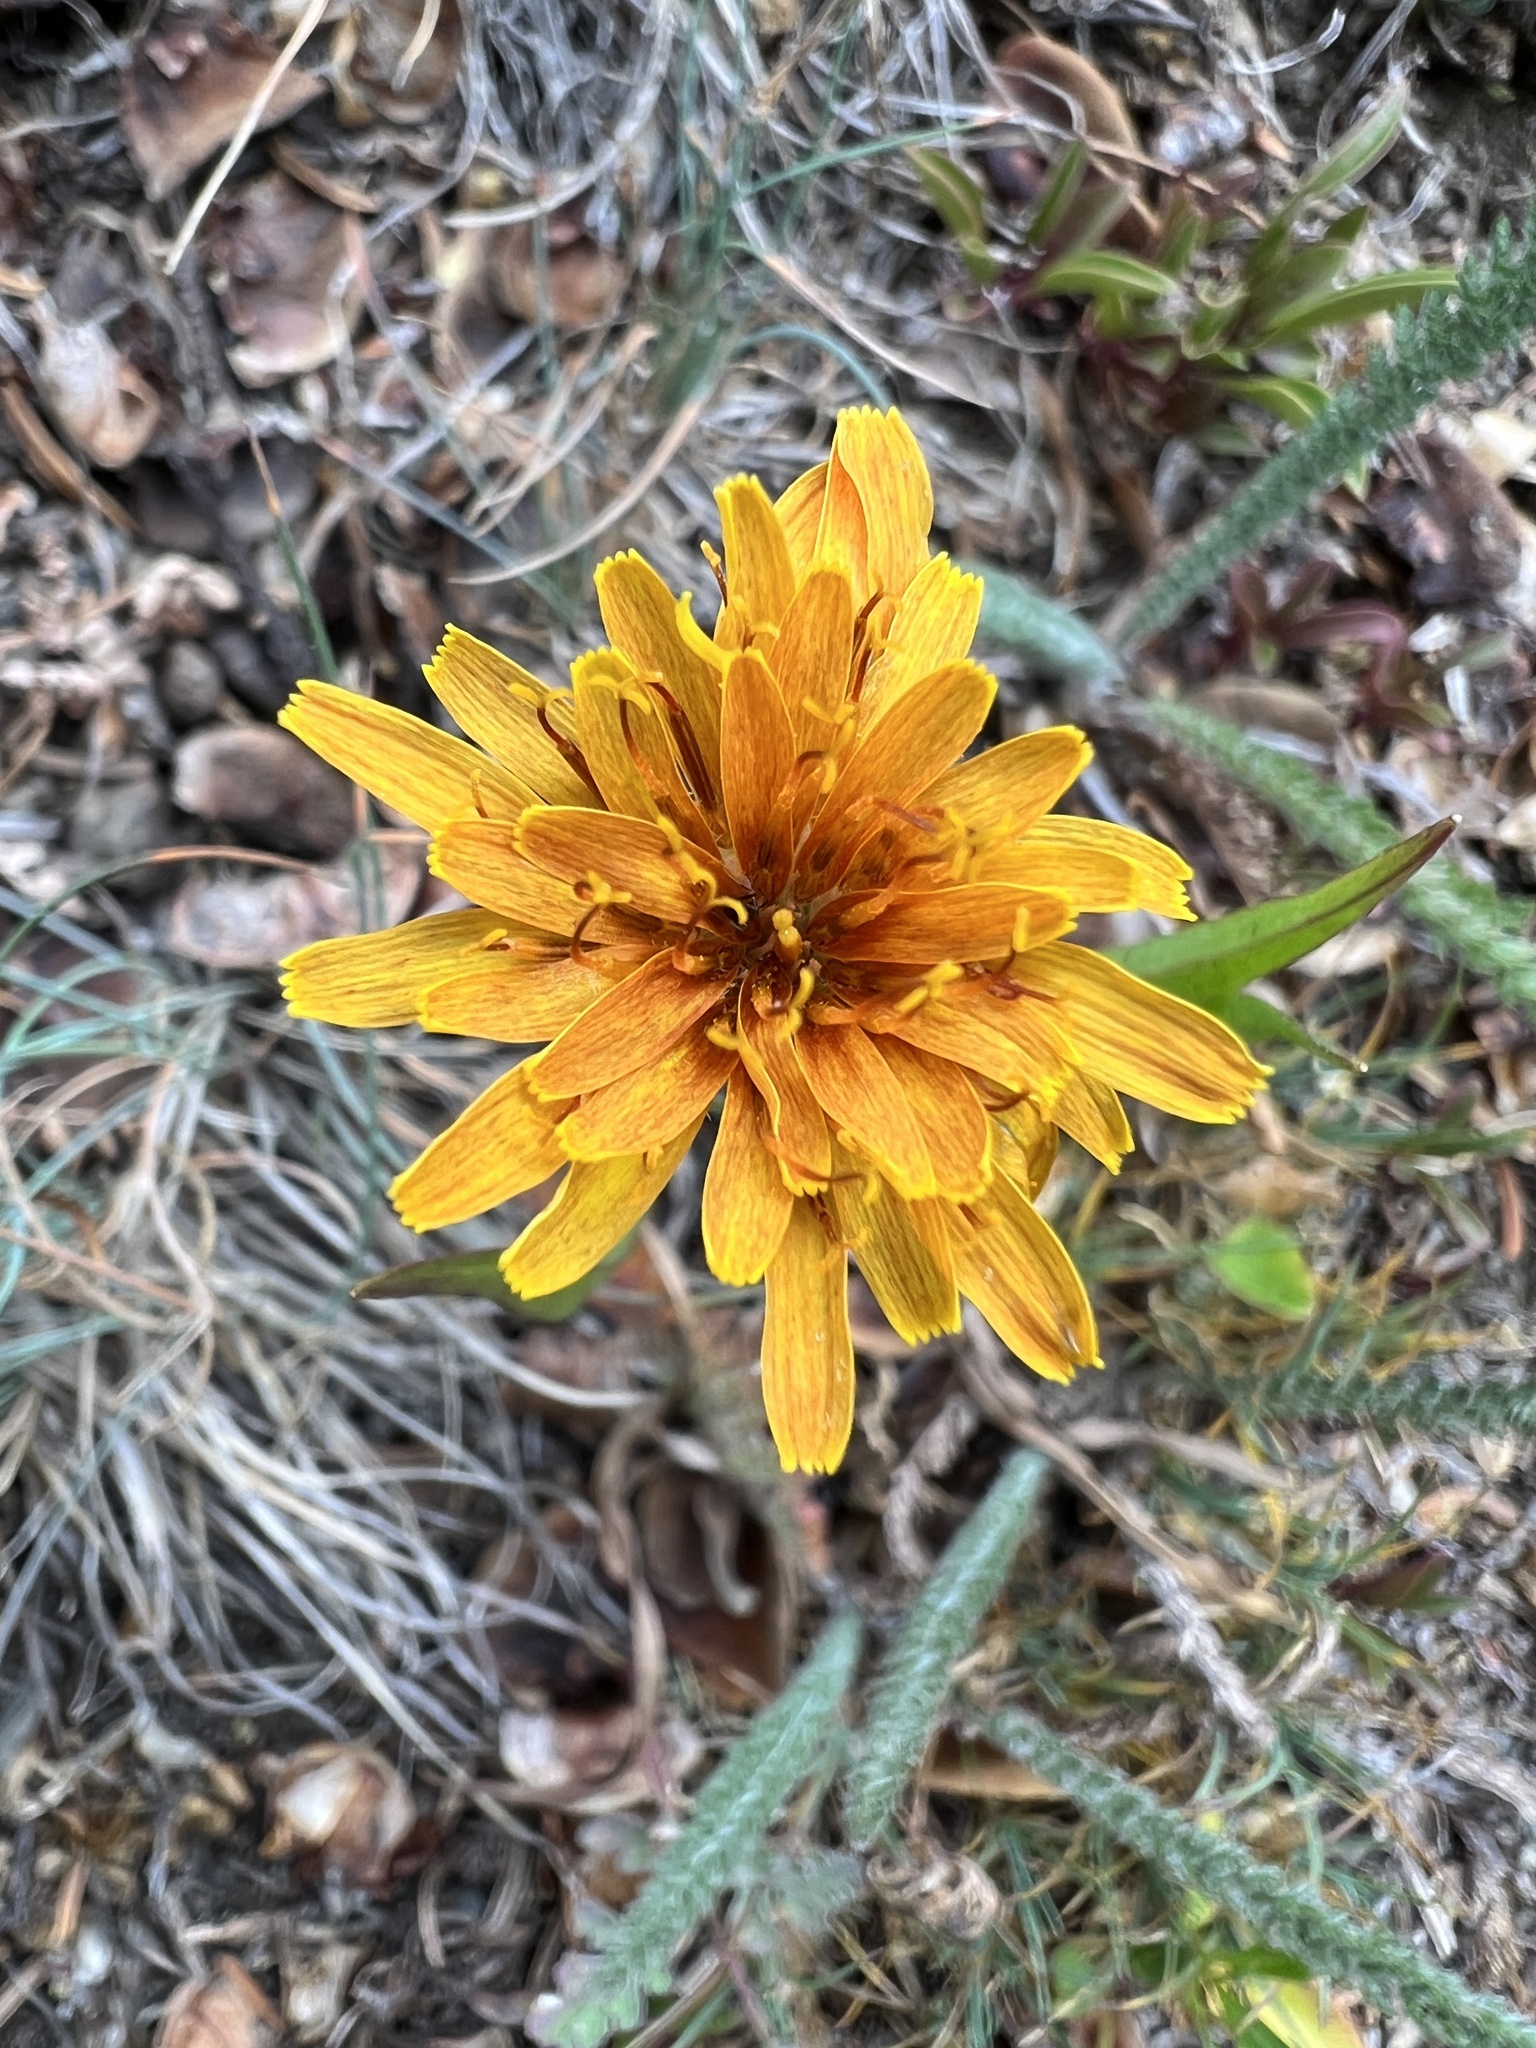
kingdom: Plantae
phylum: Tracheophyta
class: Magnoliopsida
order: Asterales
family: Asteraceae
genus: Agoseris
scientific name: Agoseris aurantiaca
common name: Mountain agoseris
